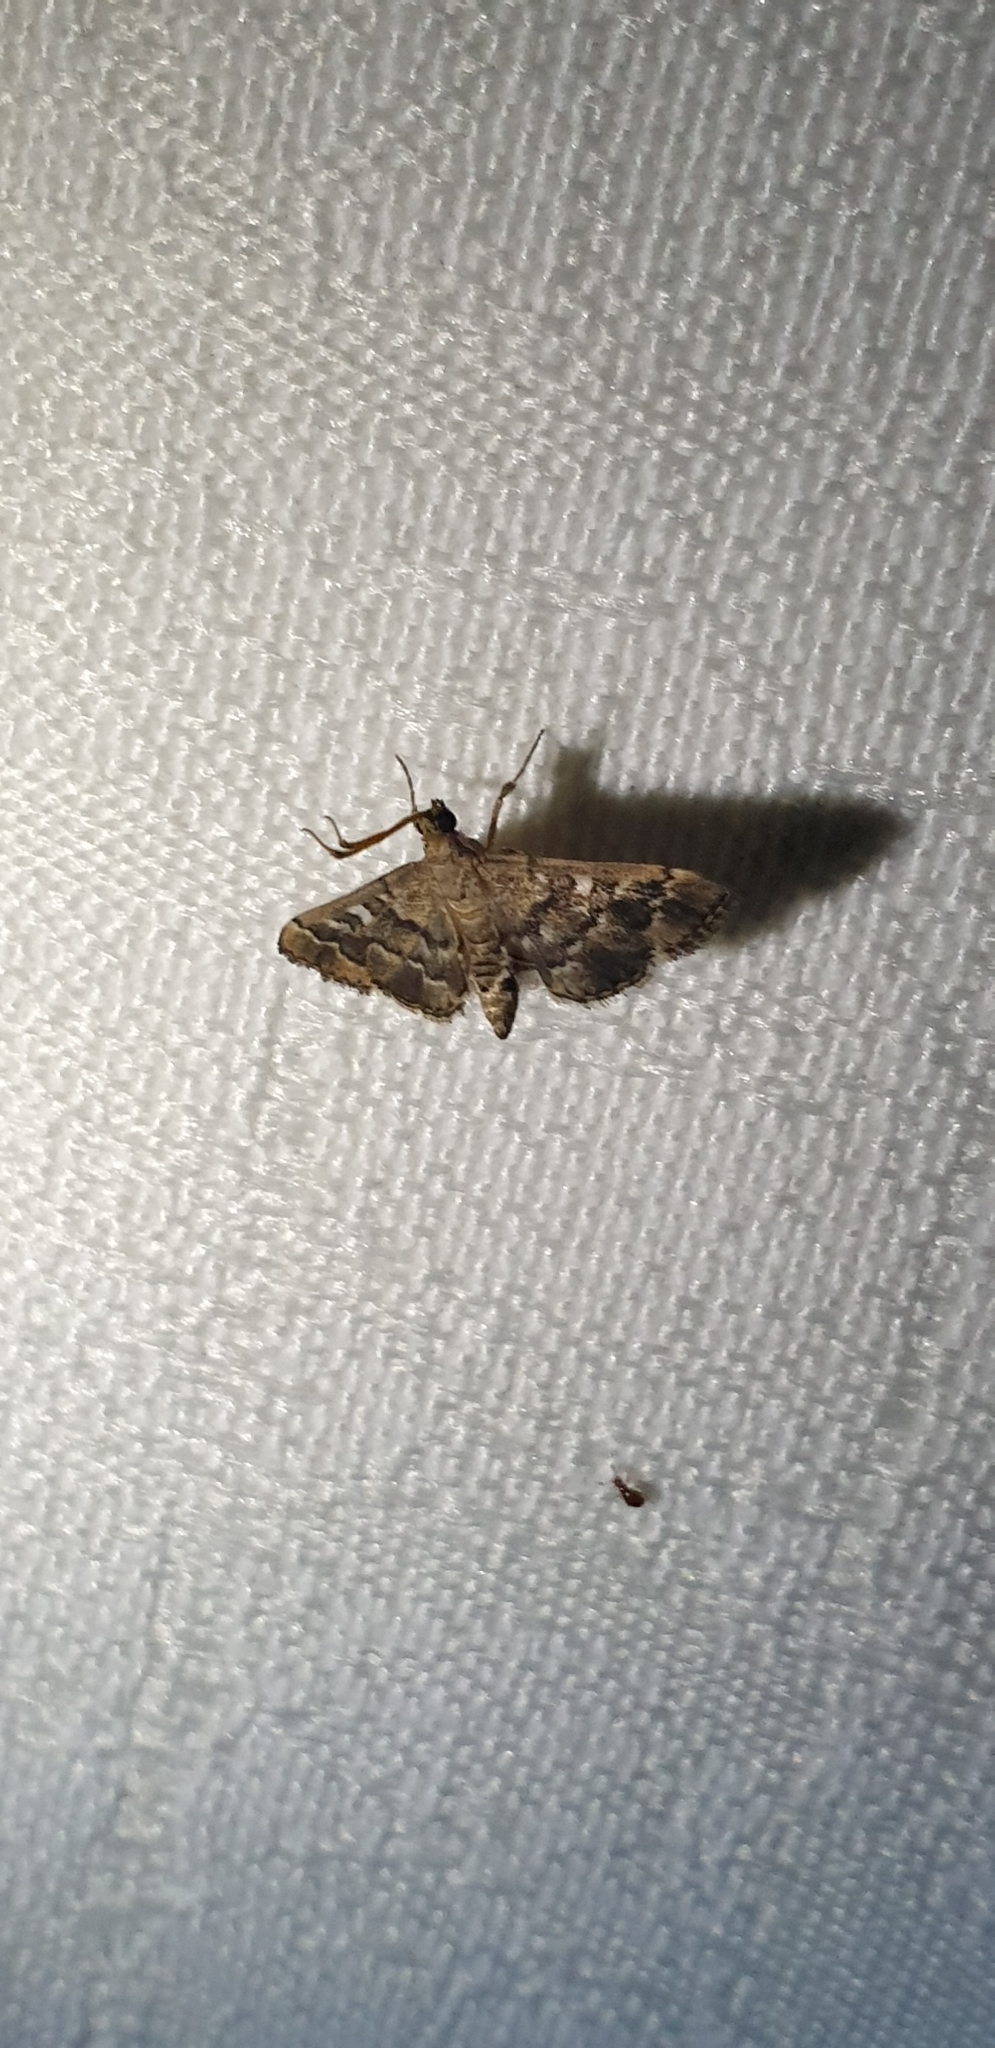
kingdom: Animalia
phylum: Arthropoda
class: Insecta
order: Lepidoptera
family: Crambidae
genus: Nacoleia
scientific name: Nacoleia rhoeoalis
